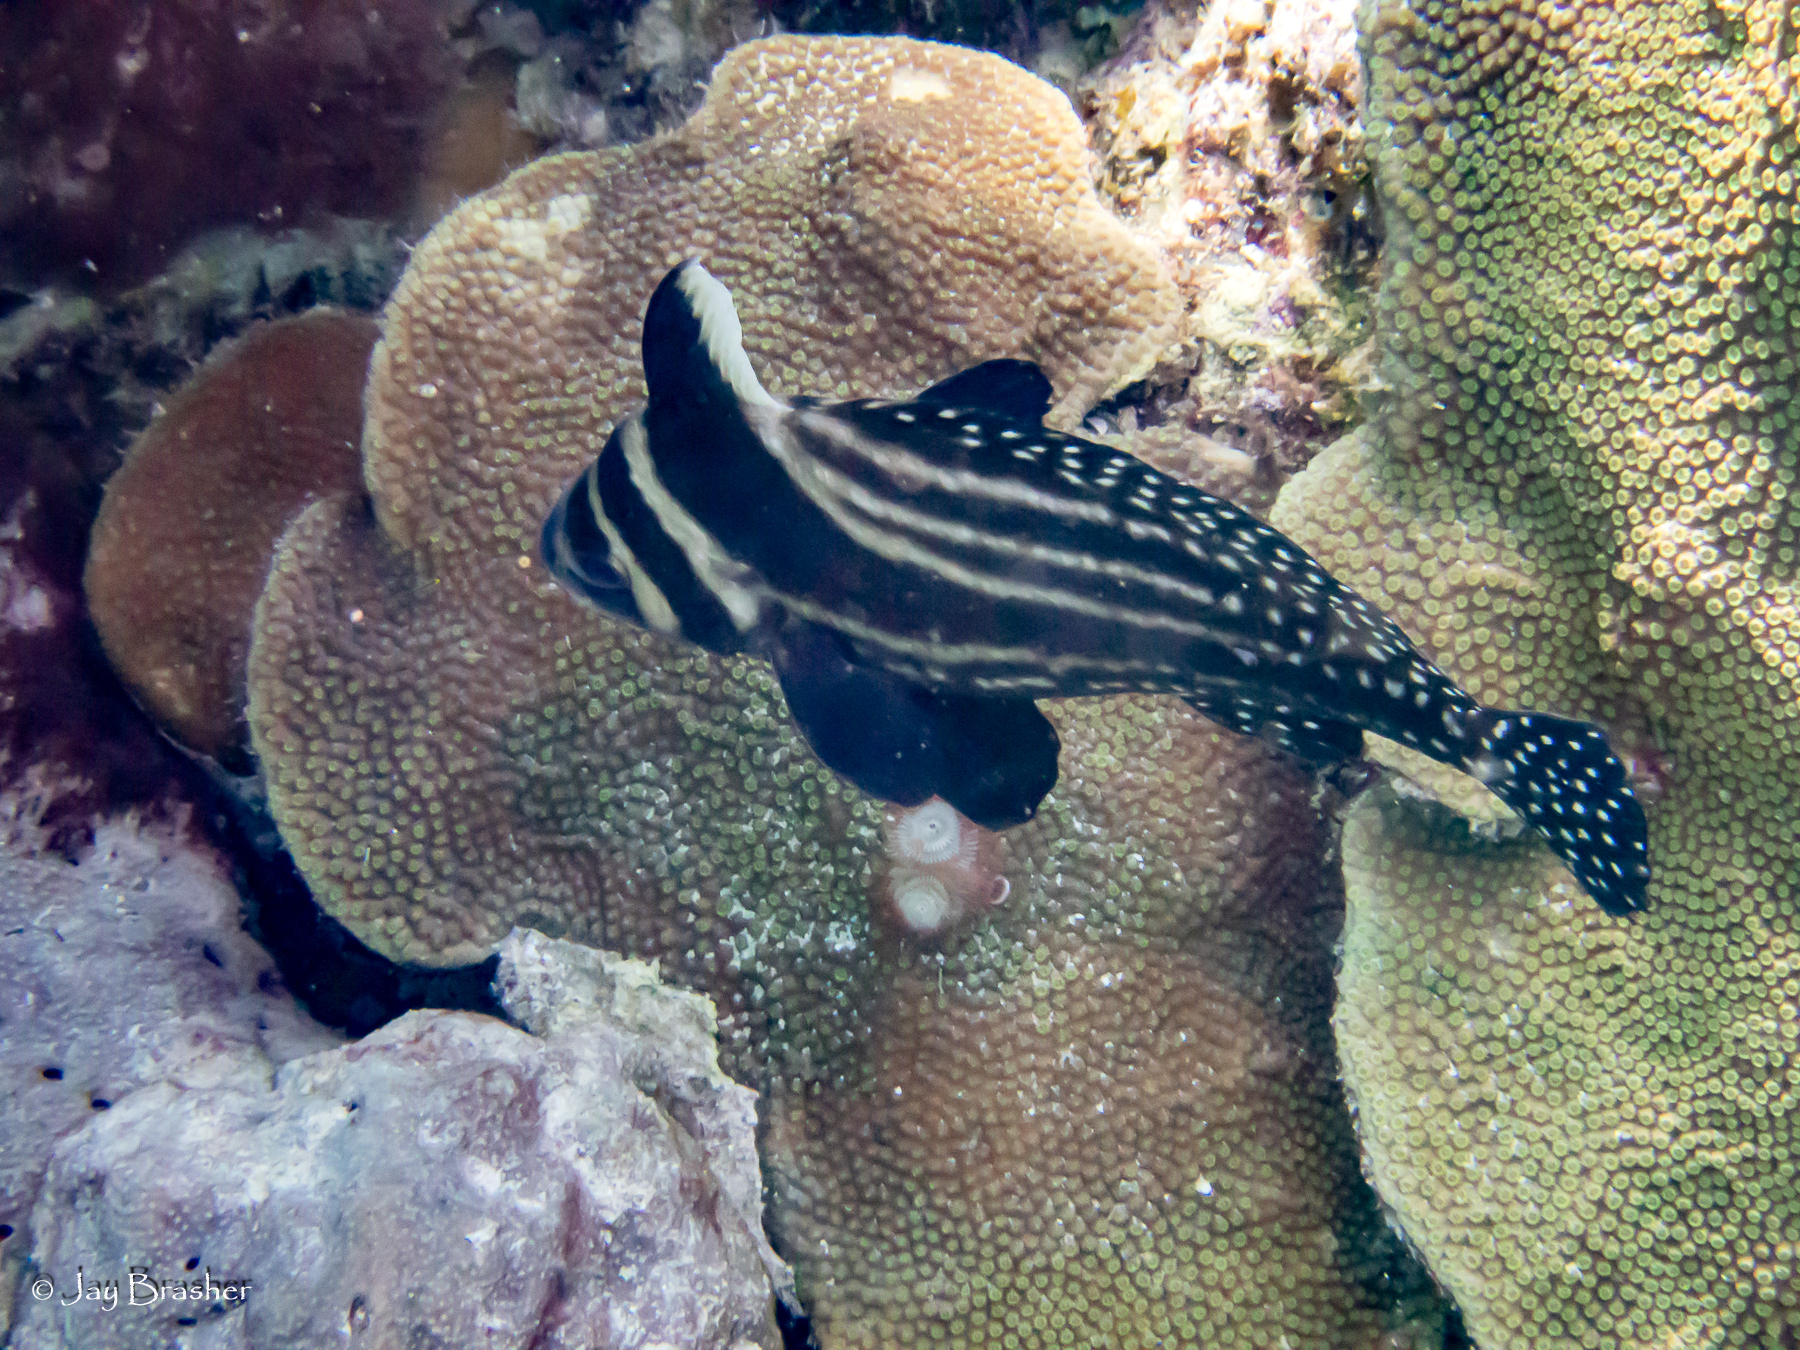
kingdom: Animalia
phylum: Chordata
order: Perciformes
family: Sciaenidae
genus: Equetus
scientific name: Equetus punctatus
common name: Spotted drum
